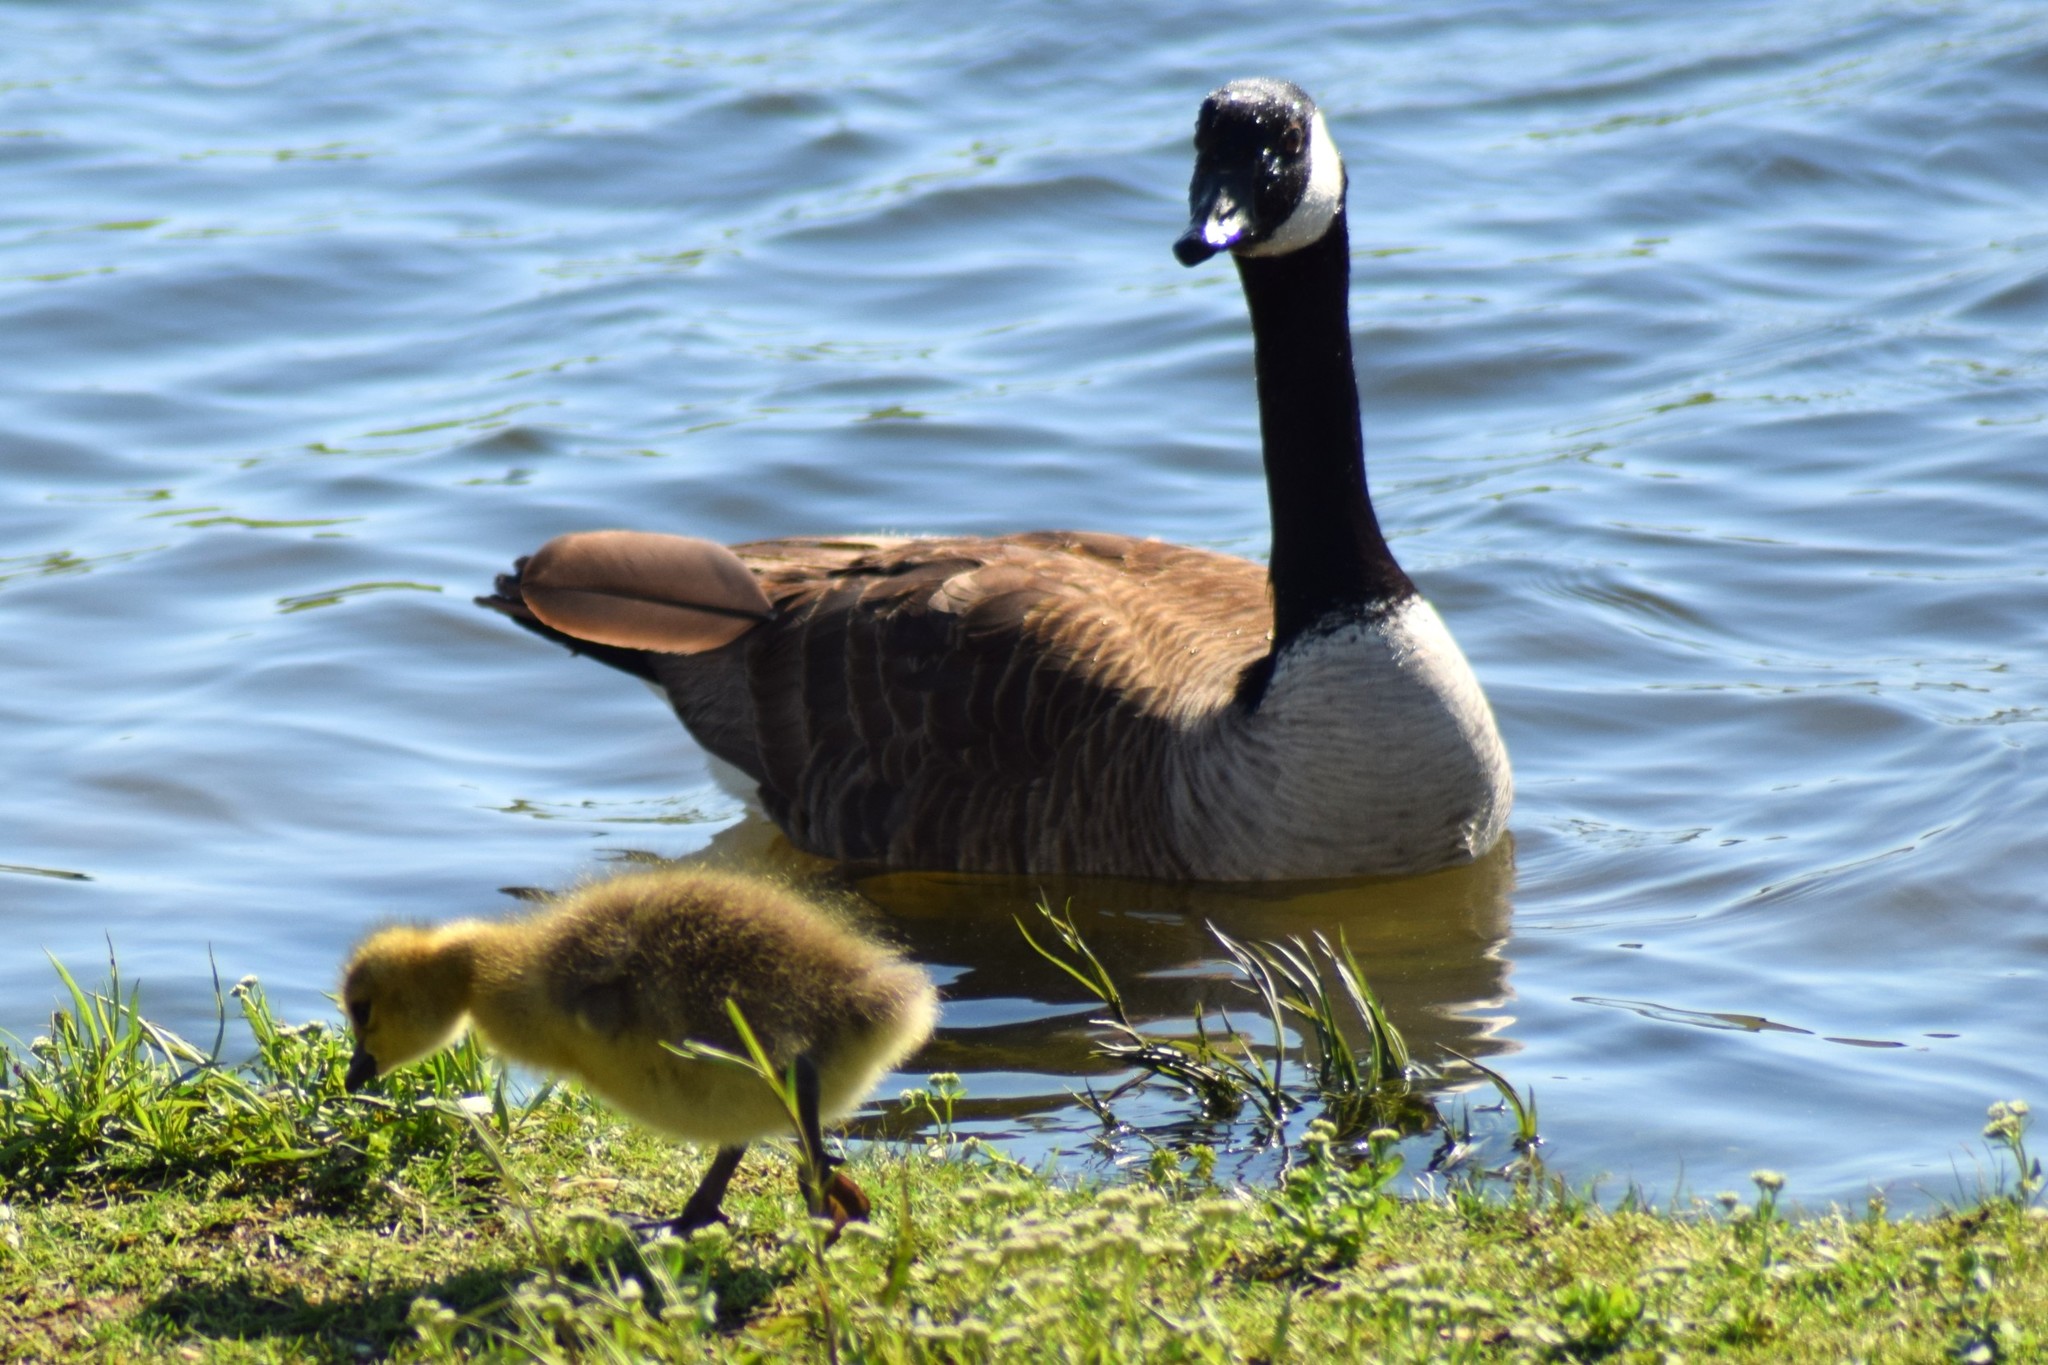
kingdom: Animalia
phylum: Chordata
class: Aves
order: Anseriformes
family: Anatidae
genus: Branta
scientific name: Branta canadensis
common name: Canada goose
